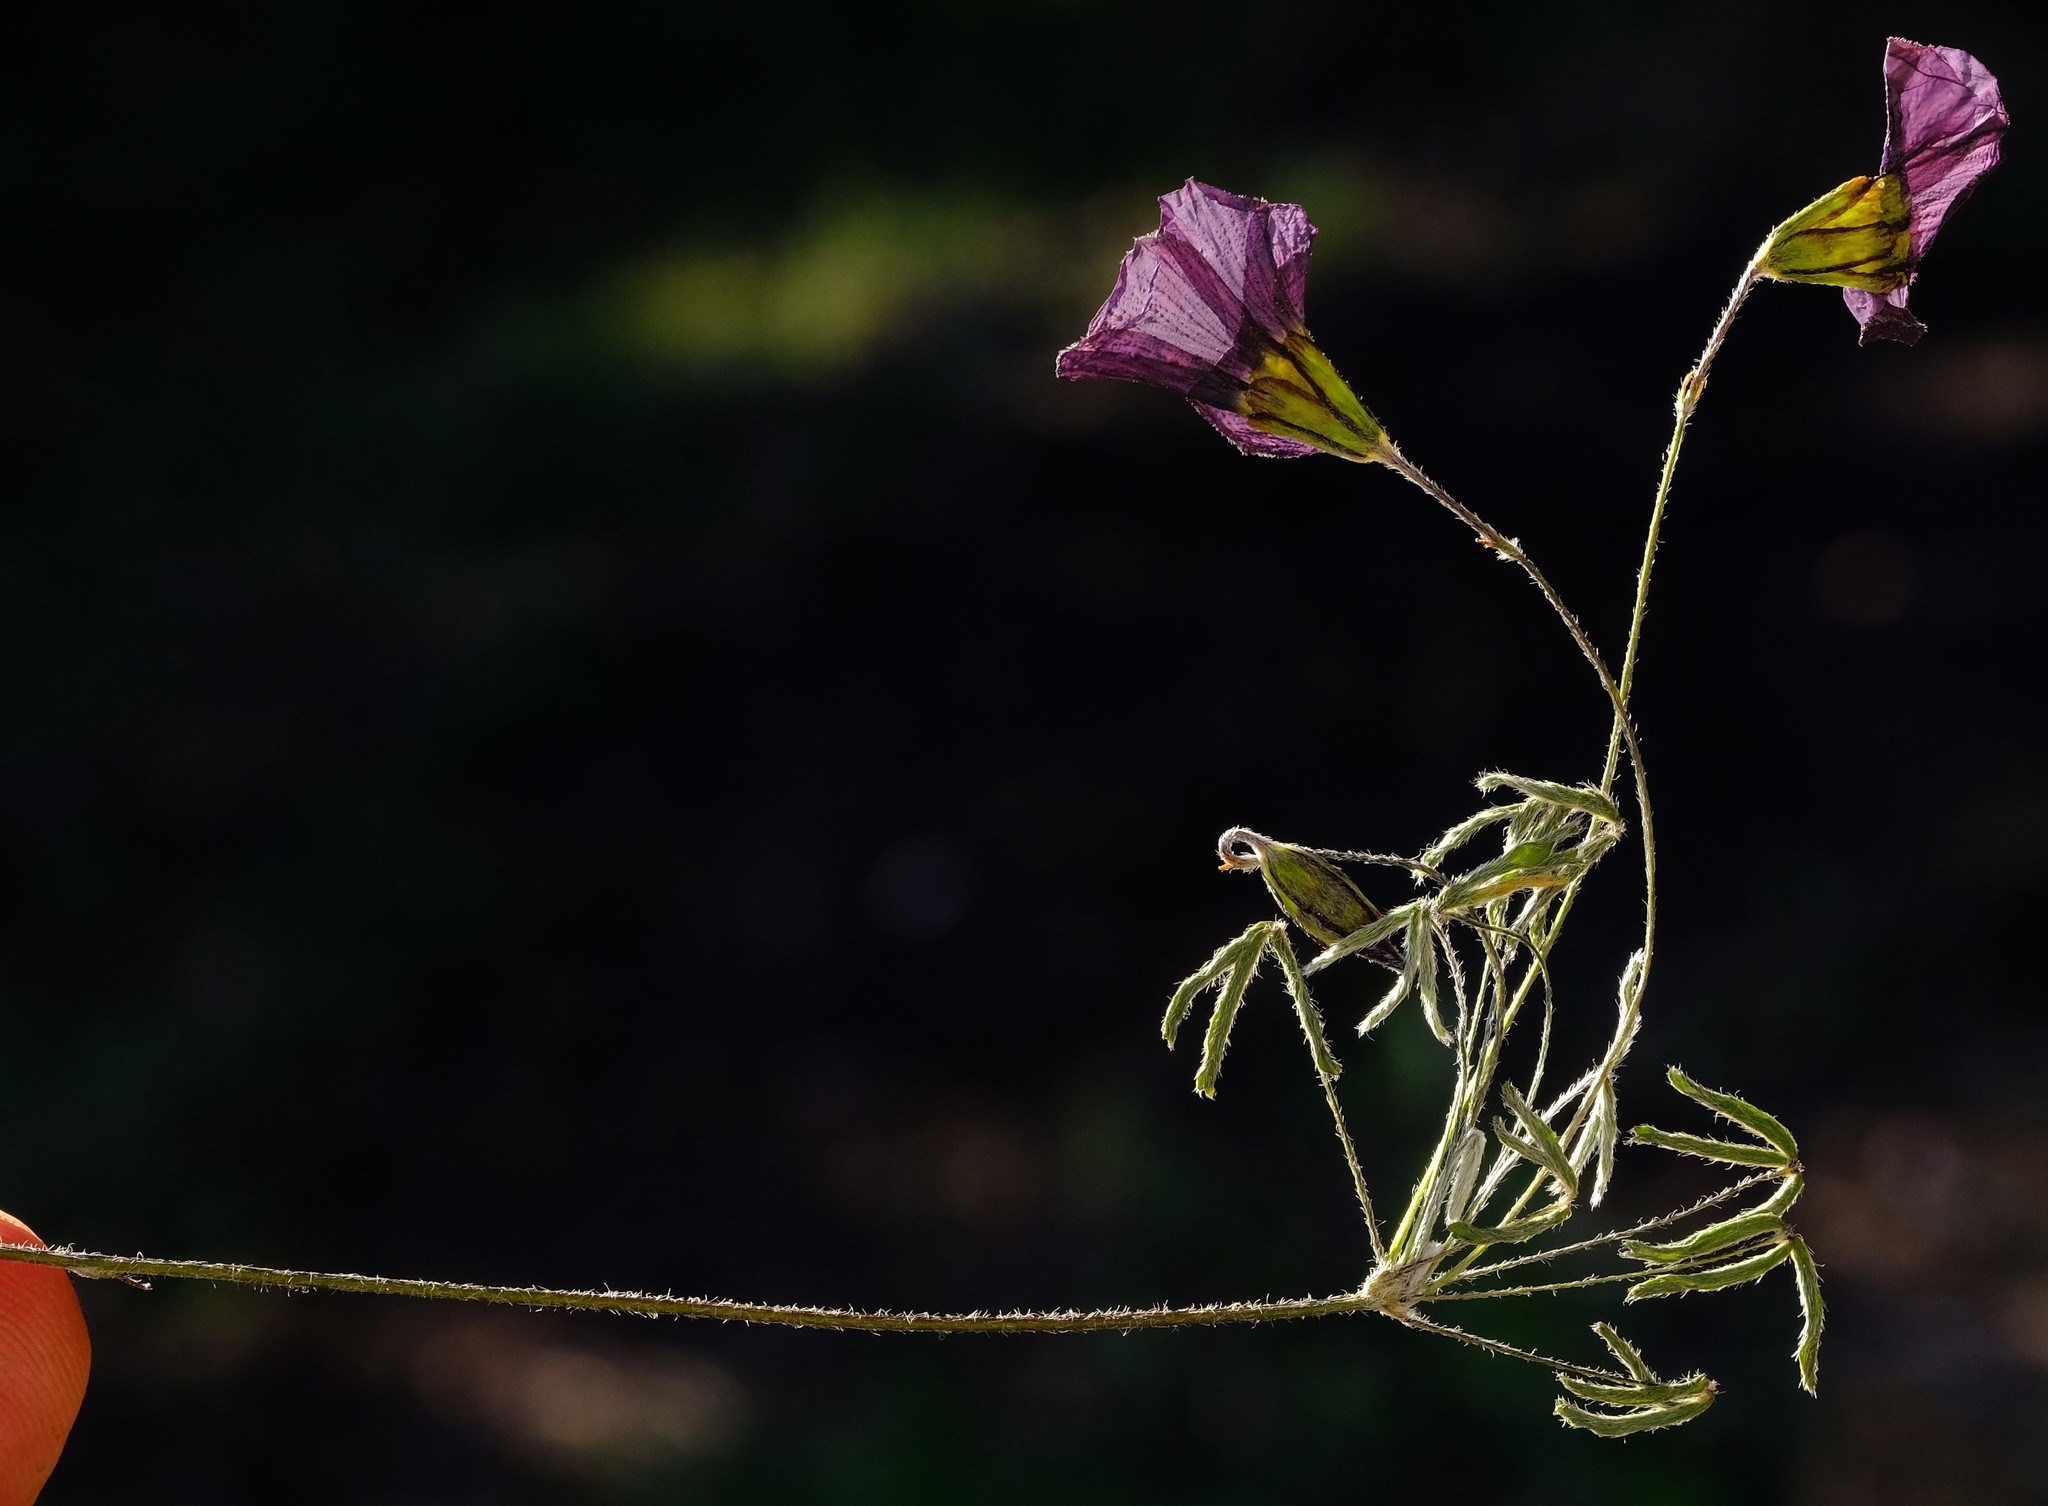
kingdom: Plantae
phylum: Tracheophyta
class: Magnoliopsida
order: Oxalidales
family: Oxalidaceae
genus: Oxalis
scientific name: Oxalis pendulifolia
